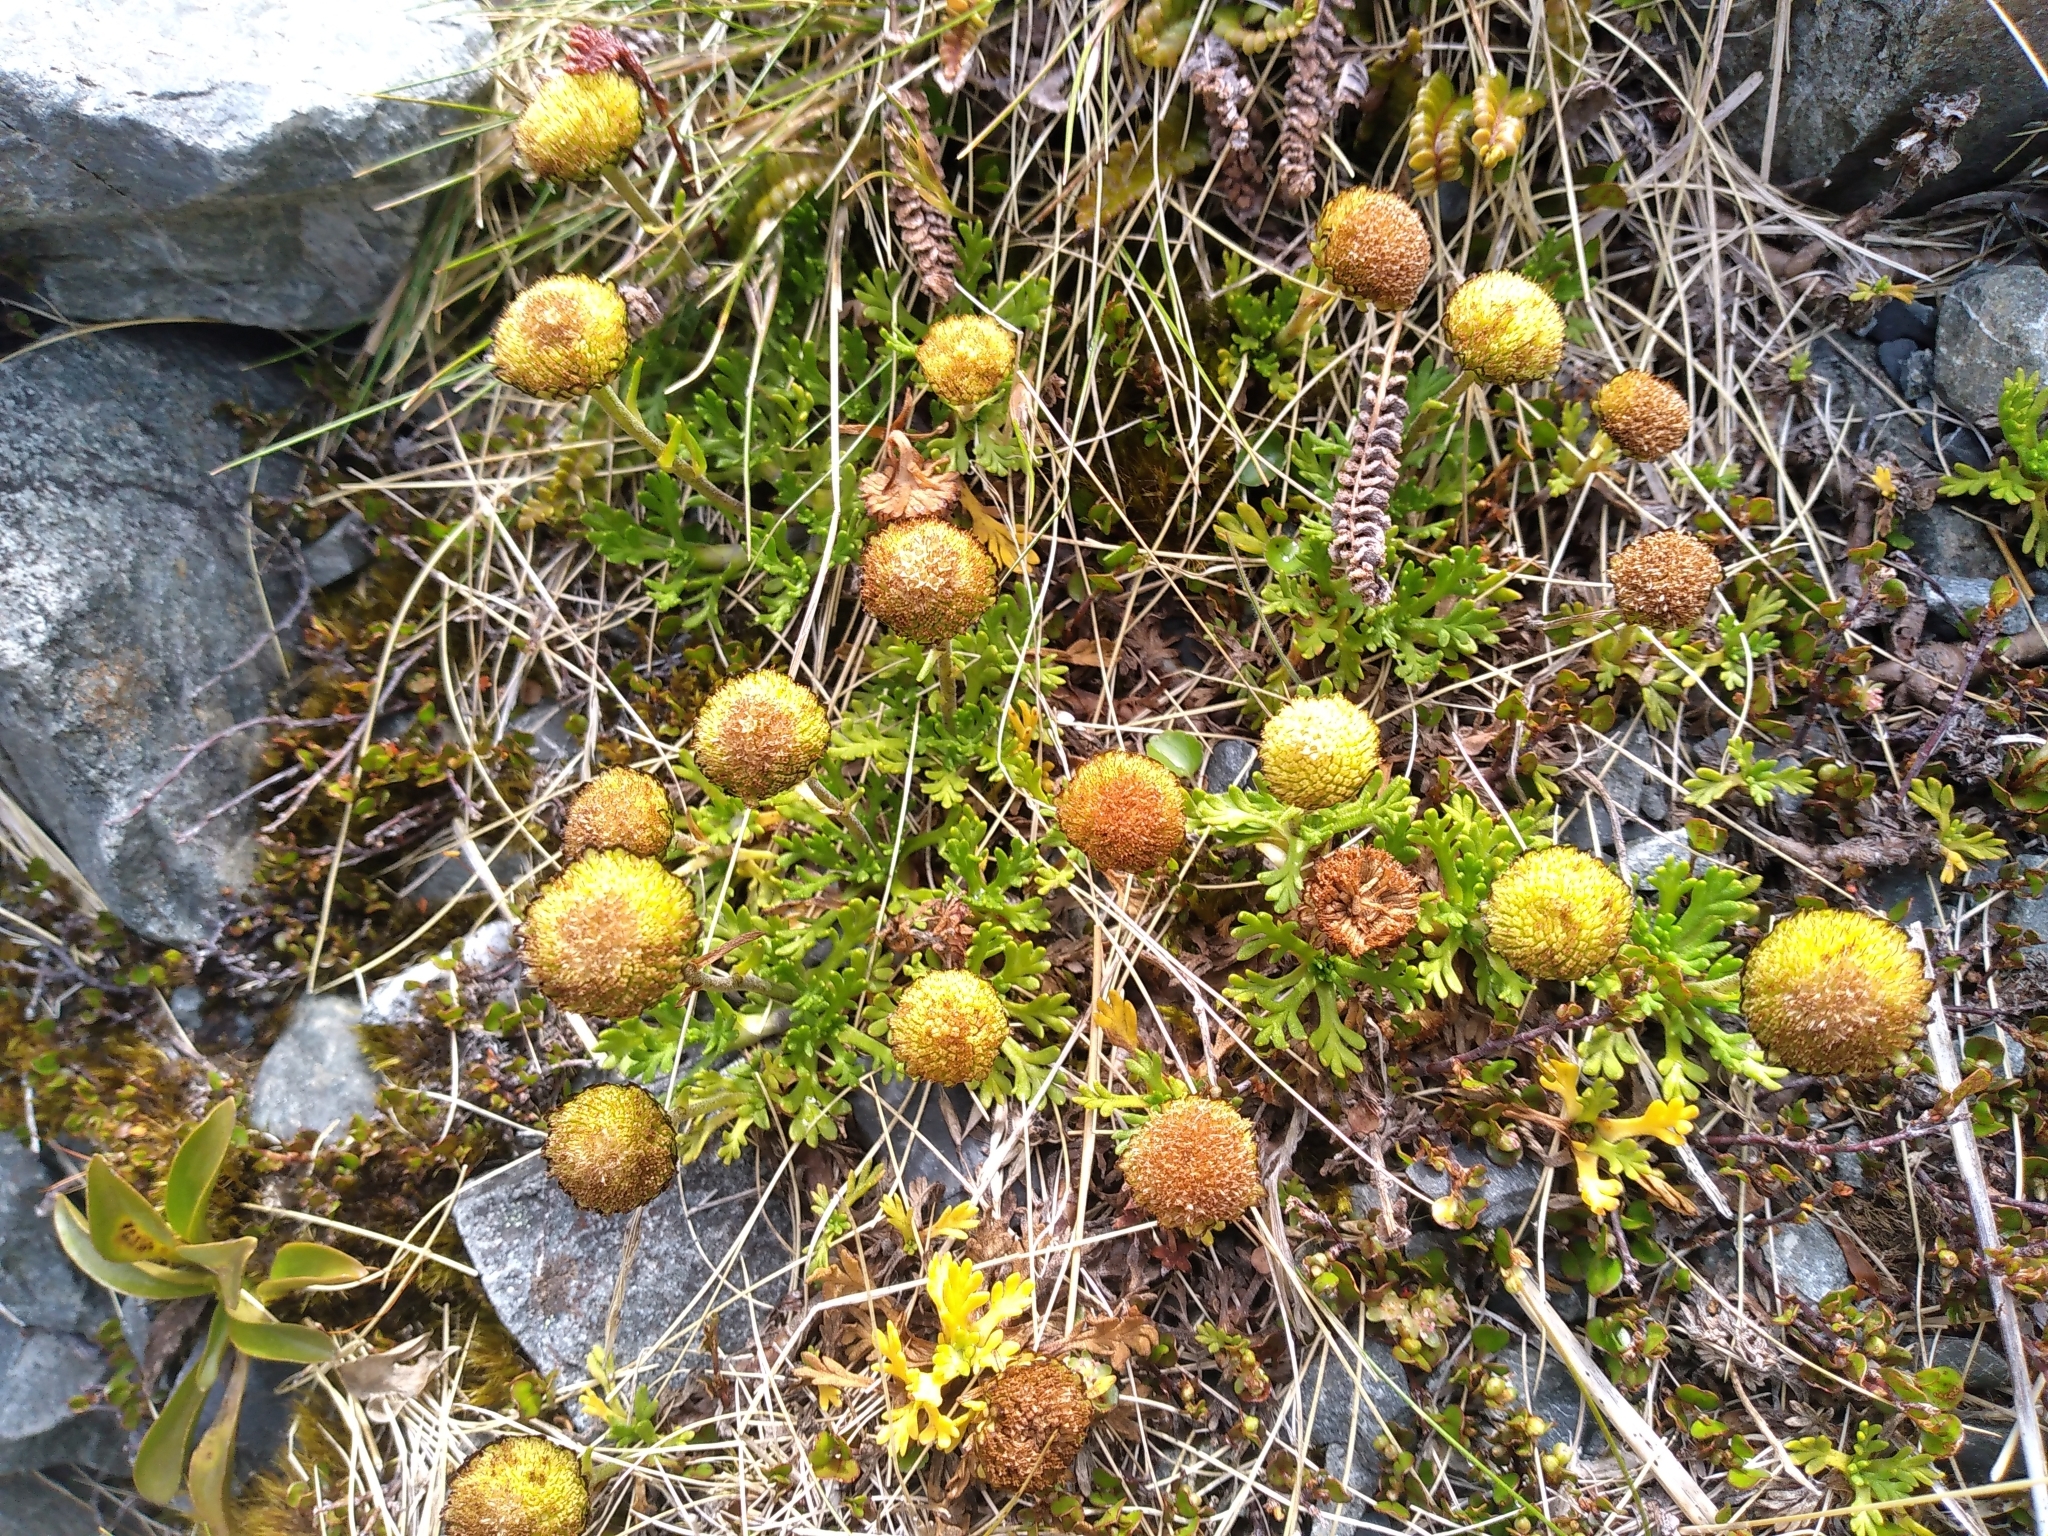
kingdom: Plantae
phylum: Tracheophyta
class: Magnoliopsida
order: Asterales
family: Asteraceae
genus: Leptinella
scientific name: Leptinella pyrethrifolia
